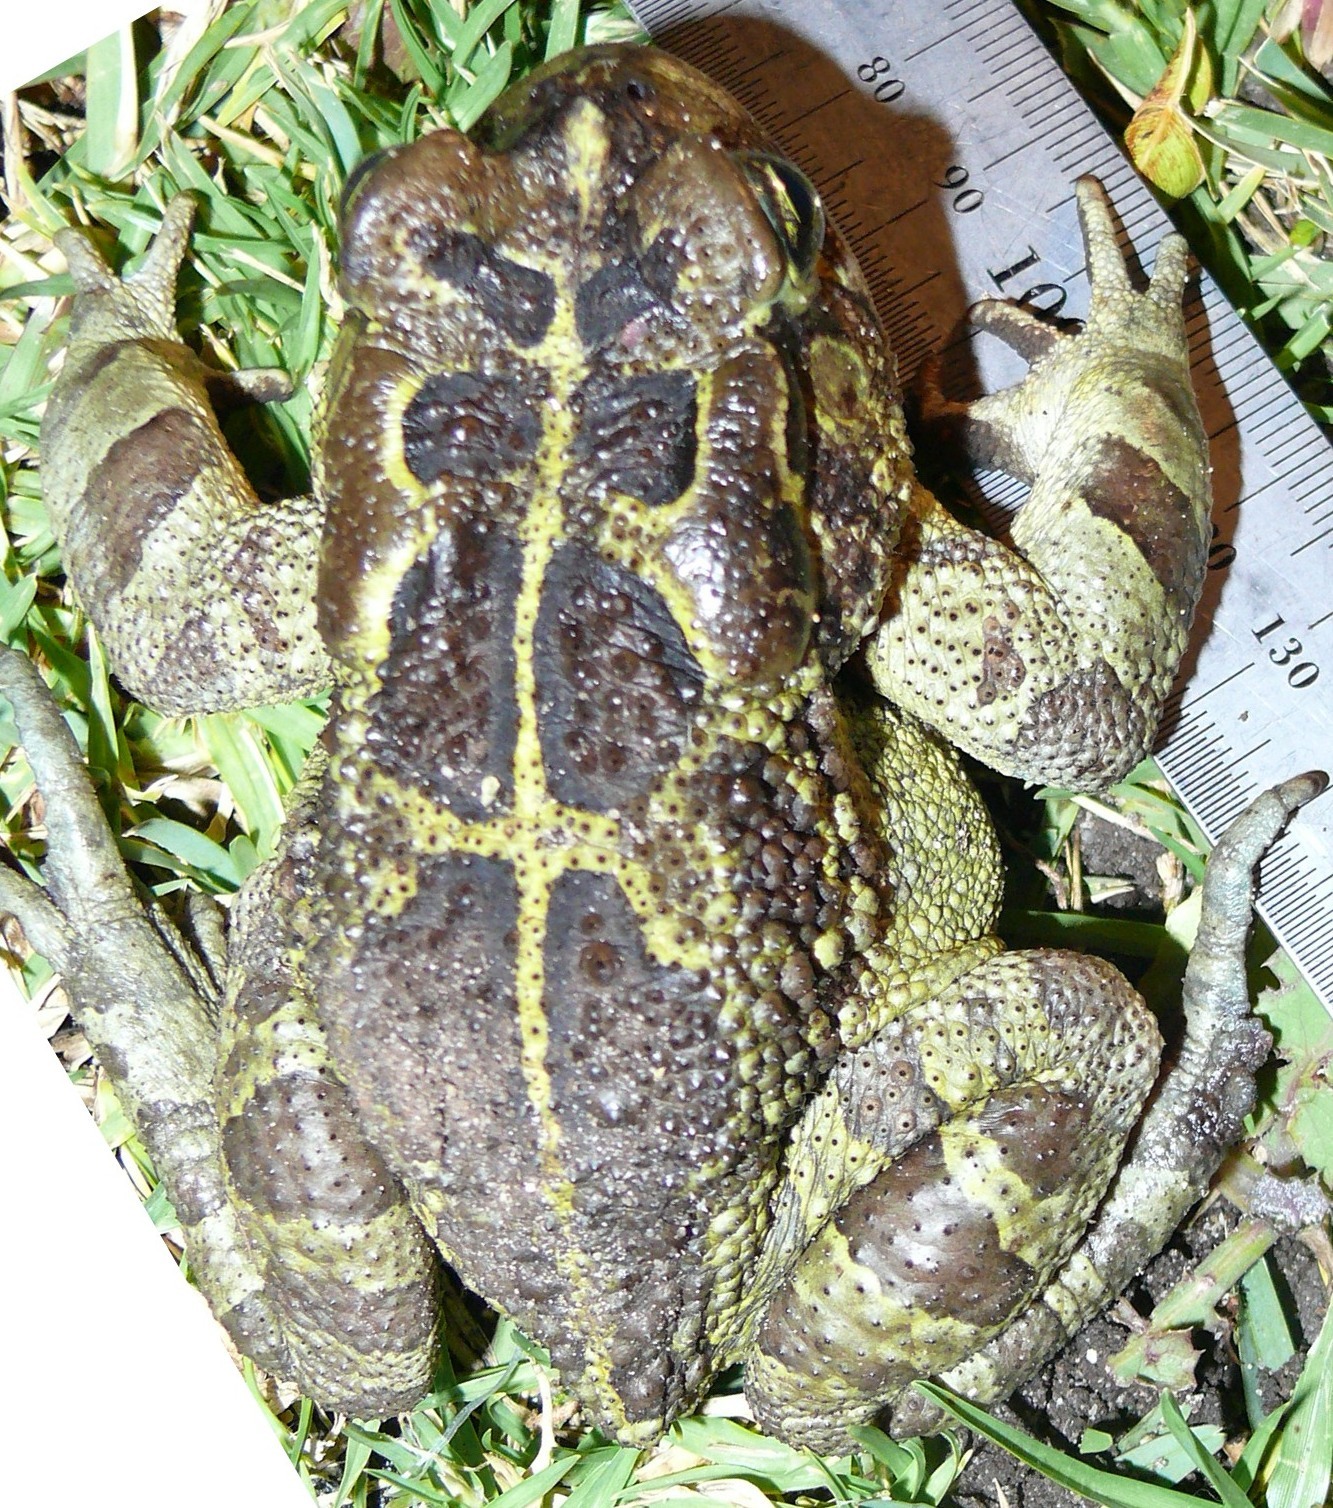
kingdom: Animalia
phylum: Chordata
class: Amphibia
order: Anura
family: Bufonidae
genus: Sclerophrys
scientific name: Sclerophrys pantherina
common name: Panther toad
